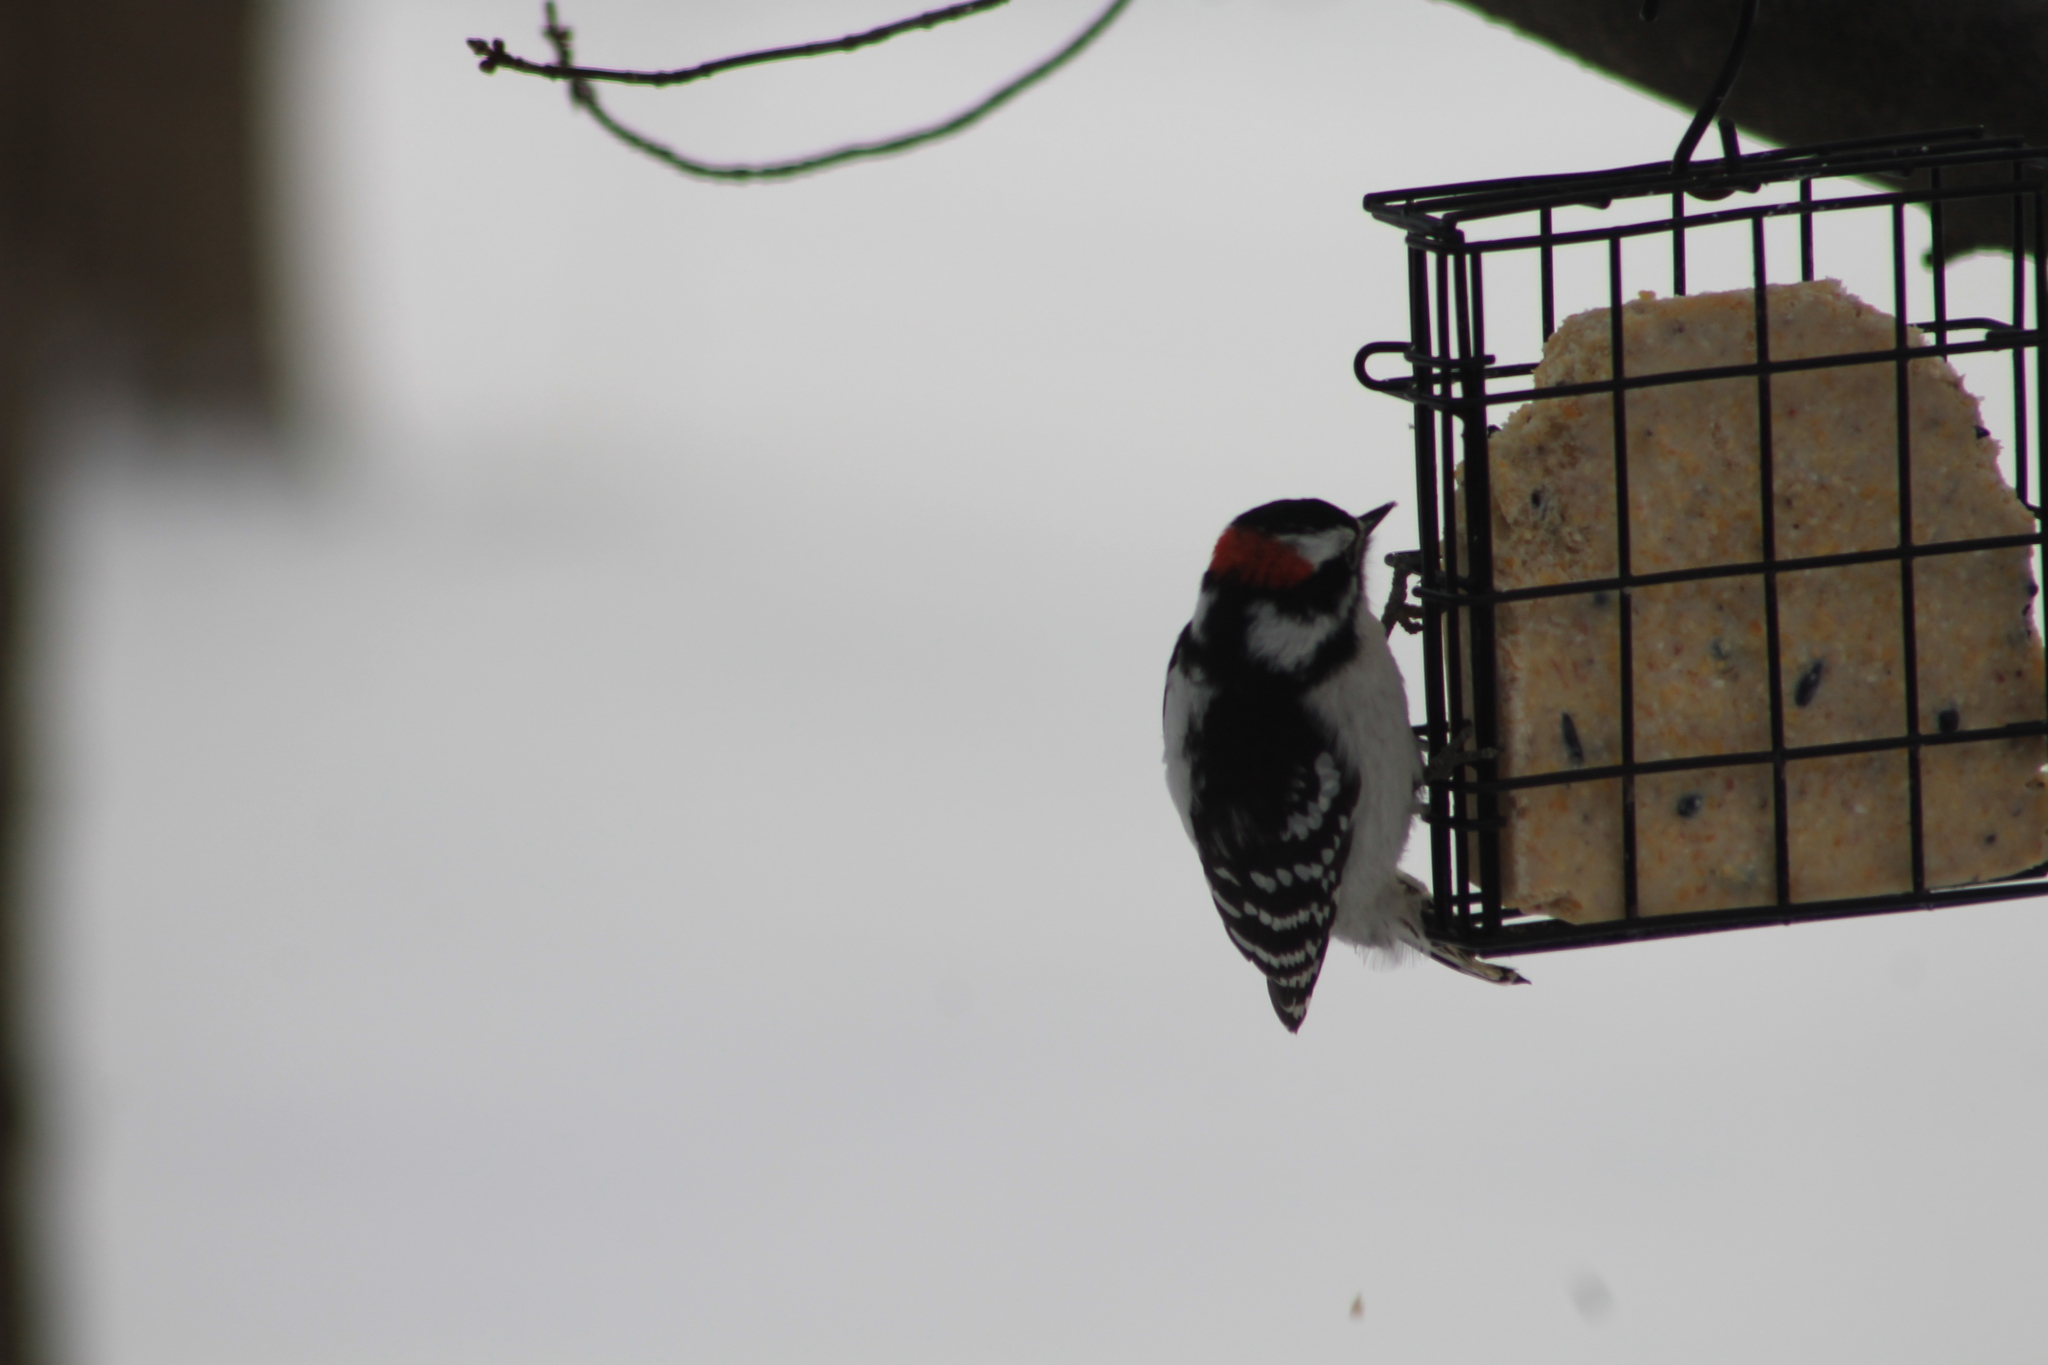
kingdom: Animalia
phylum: Chordata
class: Aves
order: Piciformes
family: Picidae
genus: Dryobates
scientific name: Dryobates pubescens
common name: Downy woodpecker
